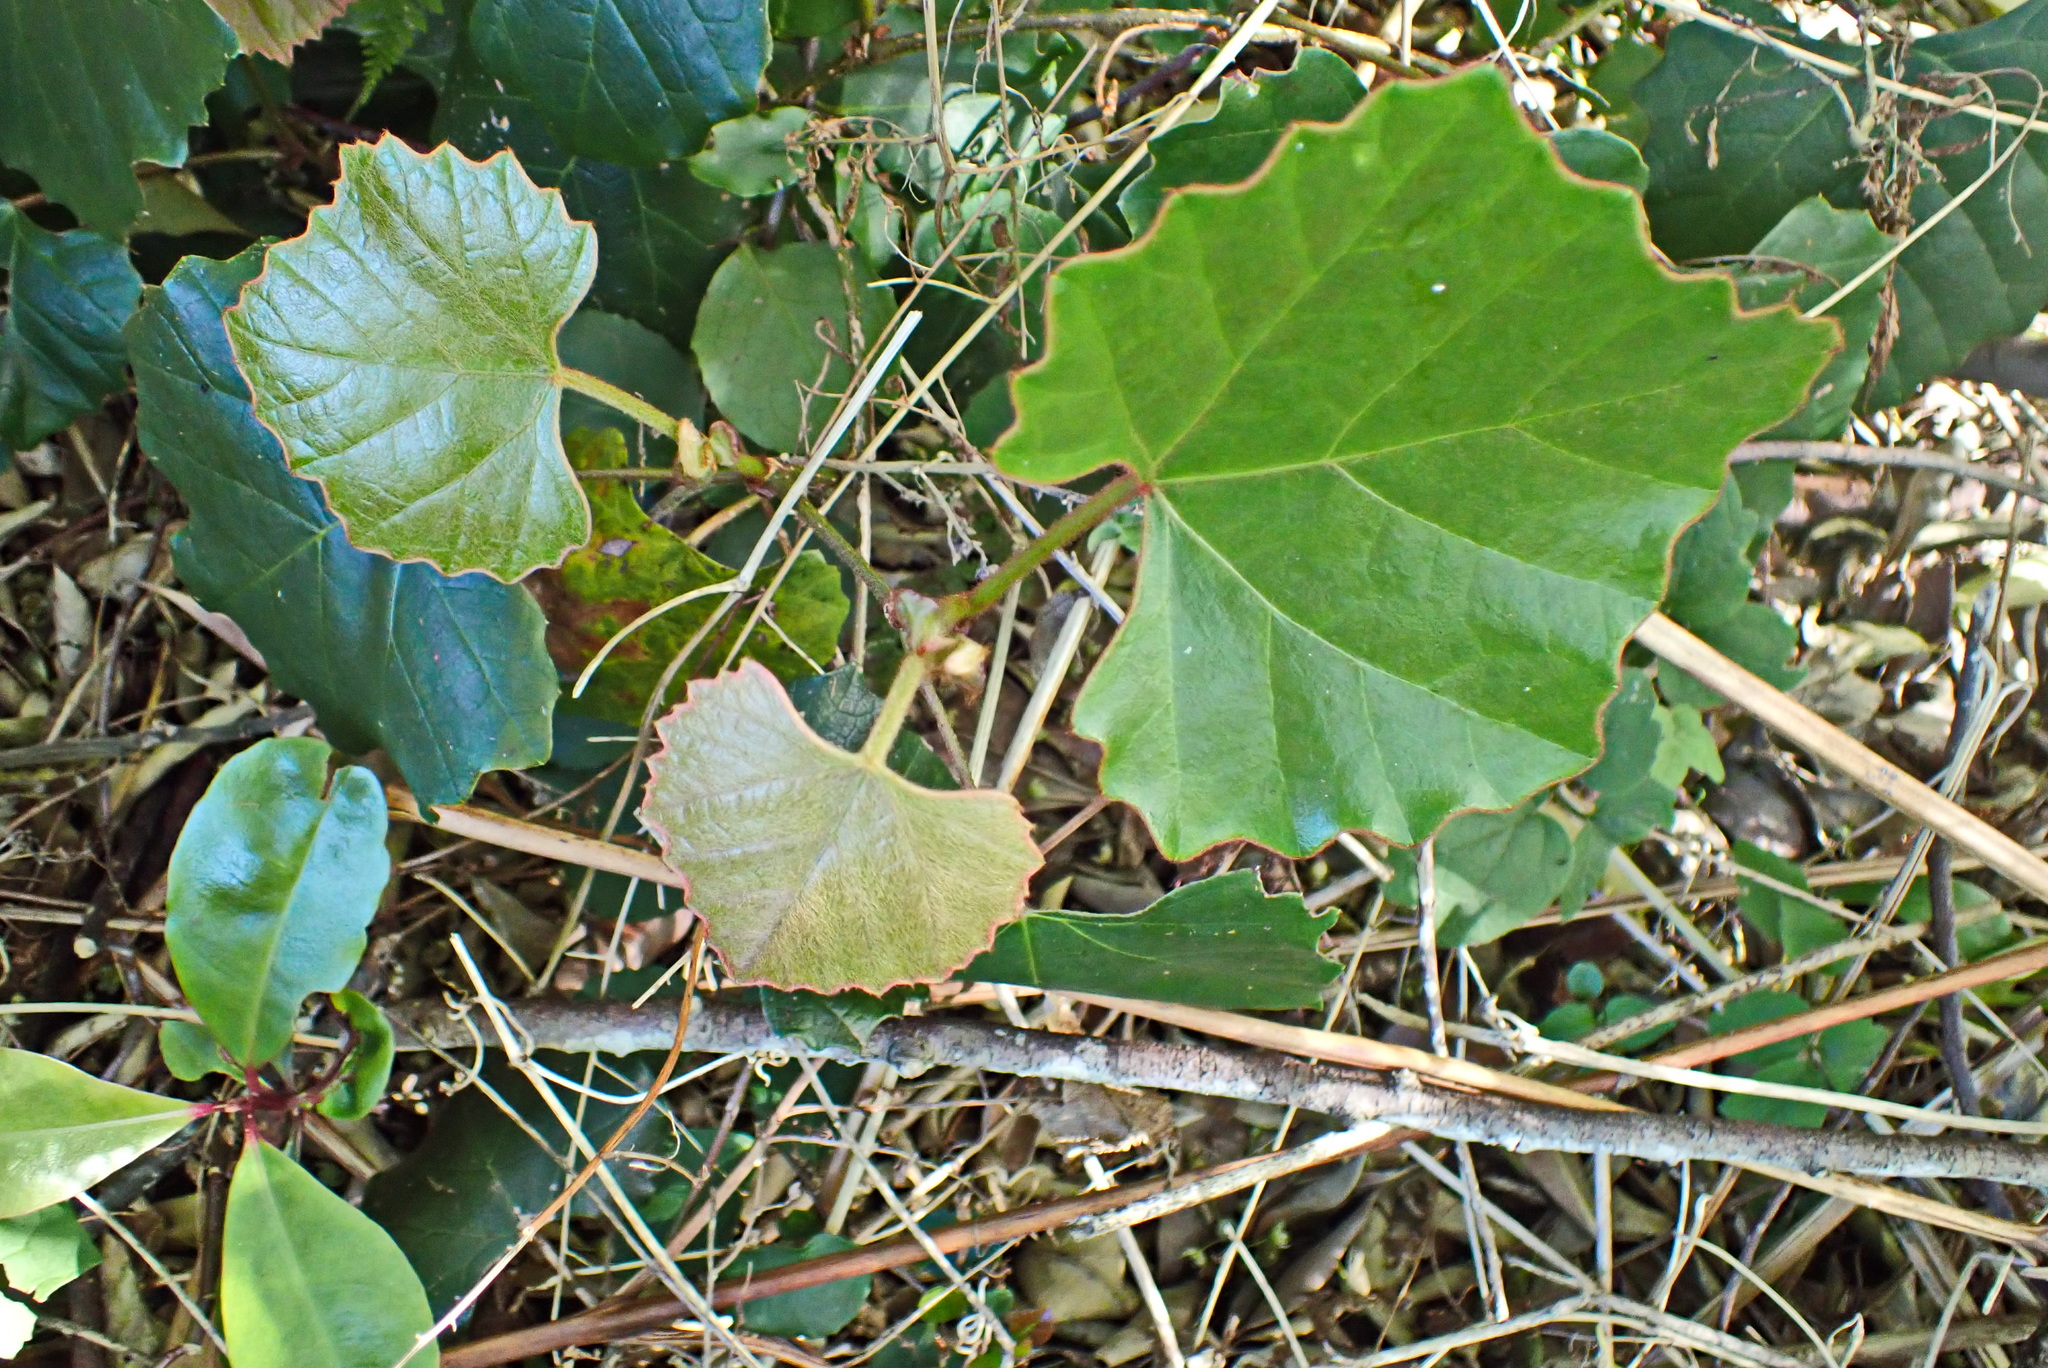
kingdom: Plantae
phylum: Tracheophyta
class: Magnoliopsida
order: Vitales
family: Vitaceae
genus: Rhoicissus
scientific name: Rhoicissus tomentosa
